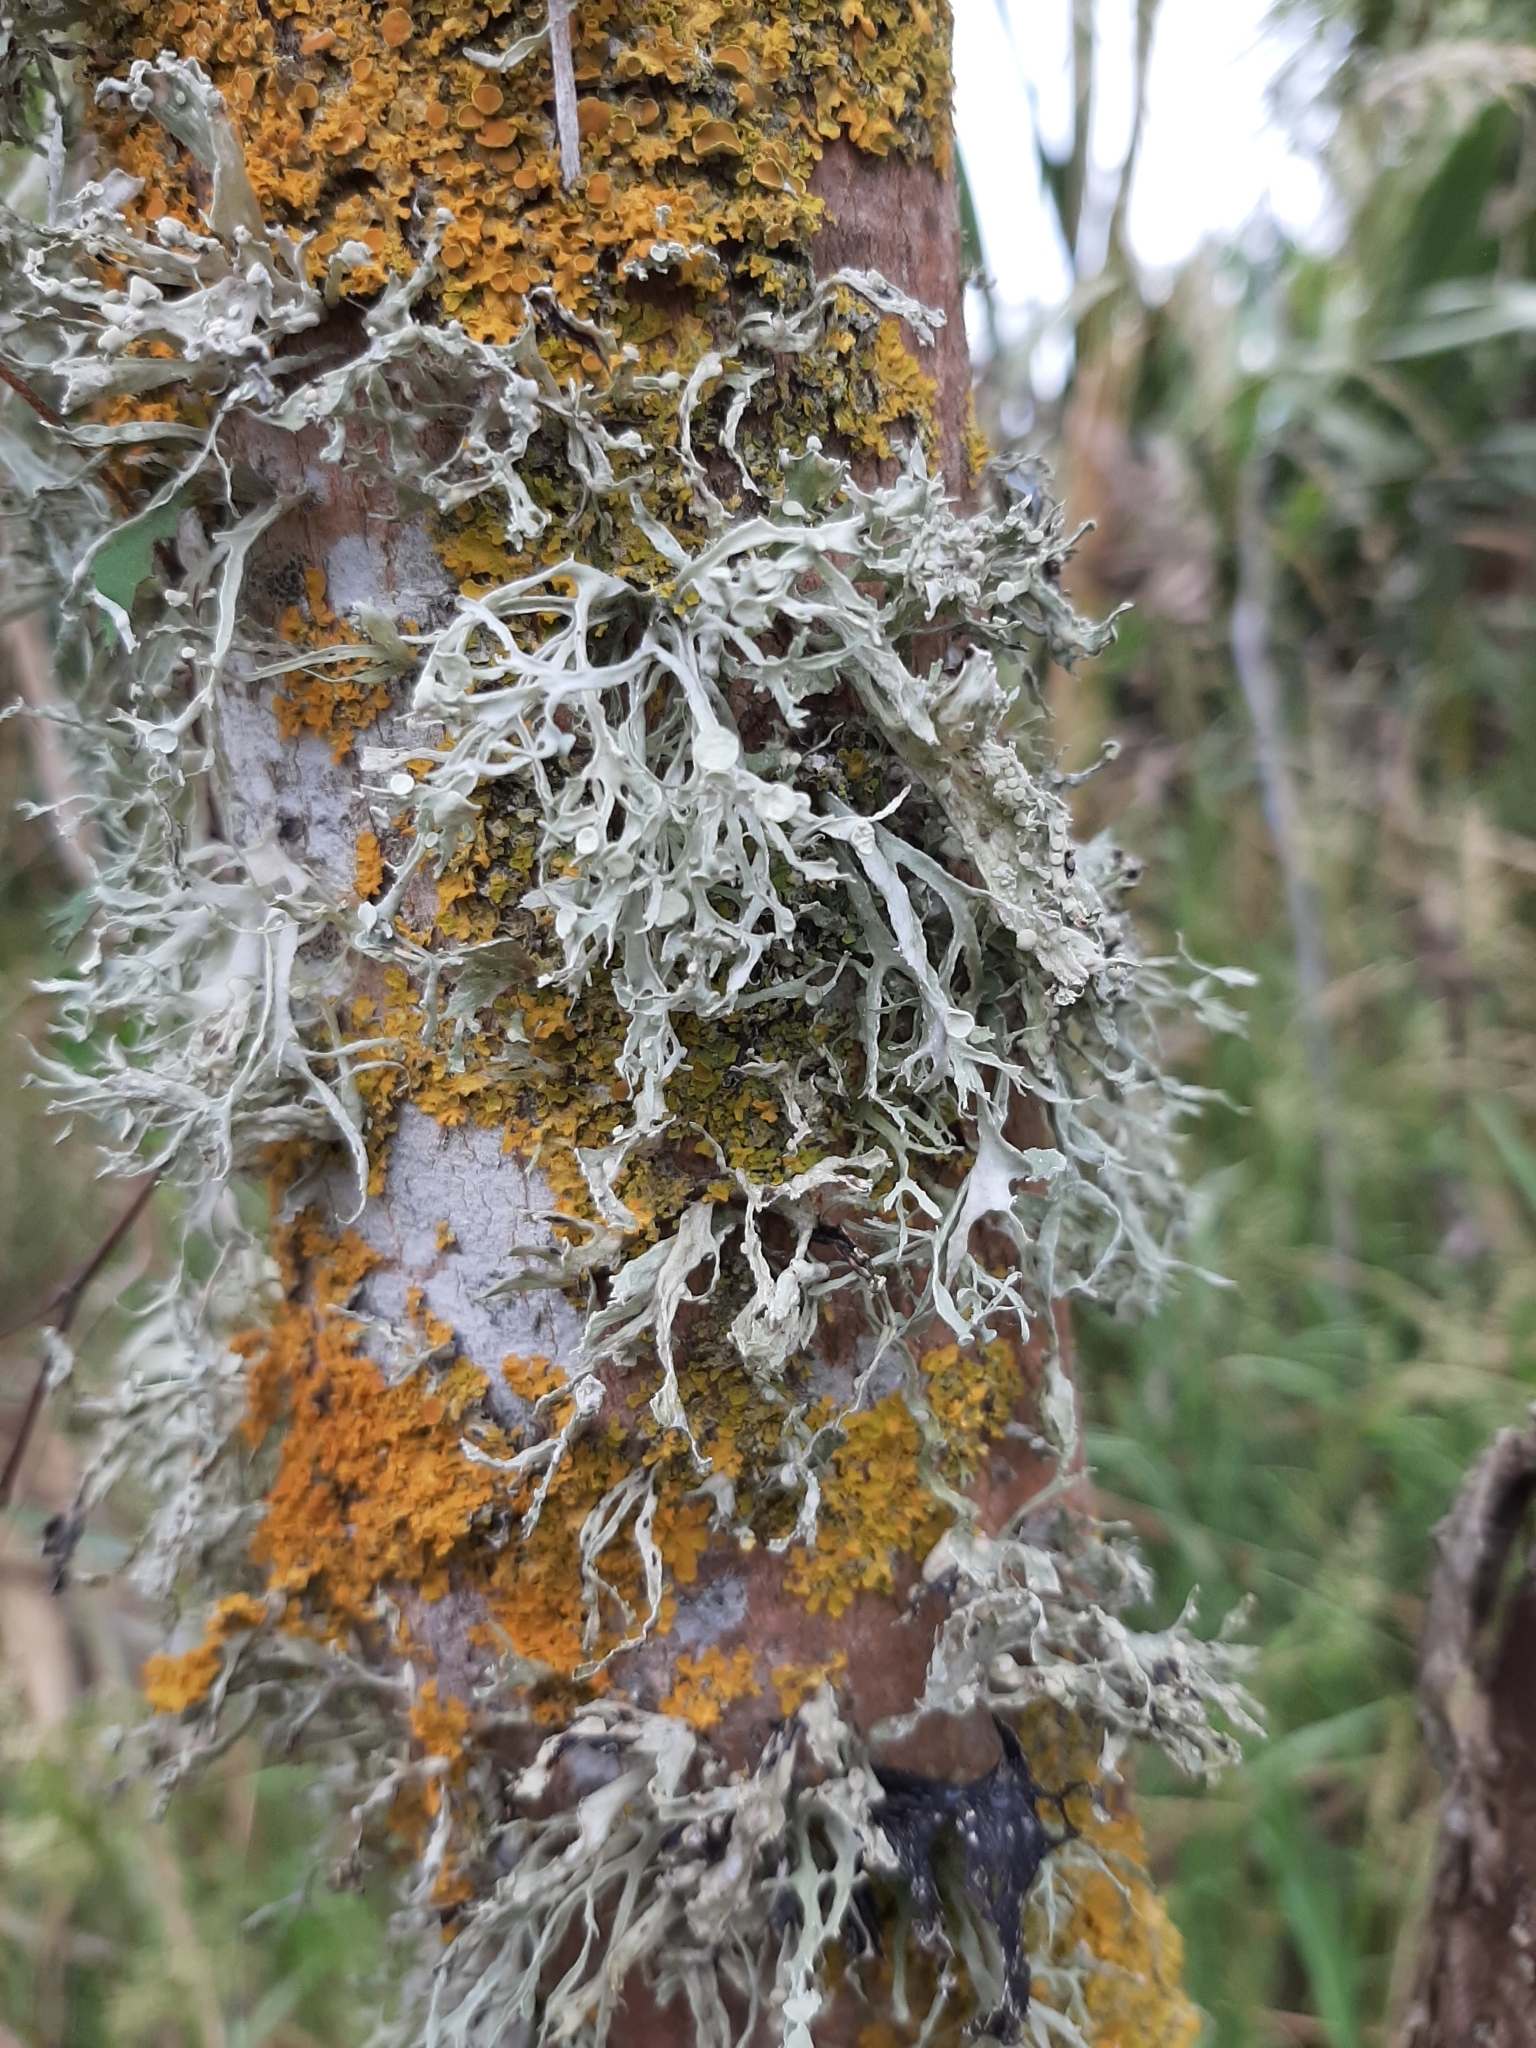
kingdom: Fungi
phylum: Ascomycota
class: Lecanoromycetes
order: Lecanorales
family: Ramalinaceae
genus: Ramalina
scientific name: Ramalina celastri
